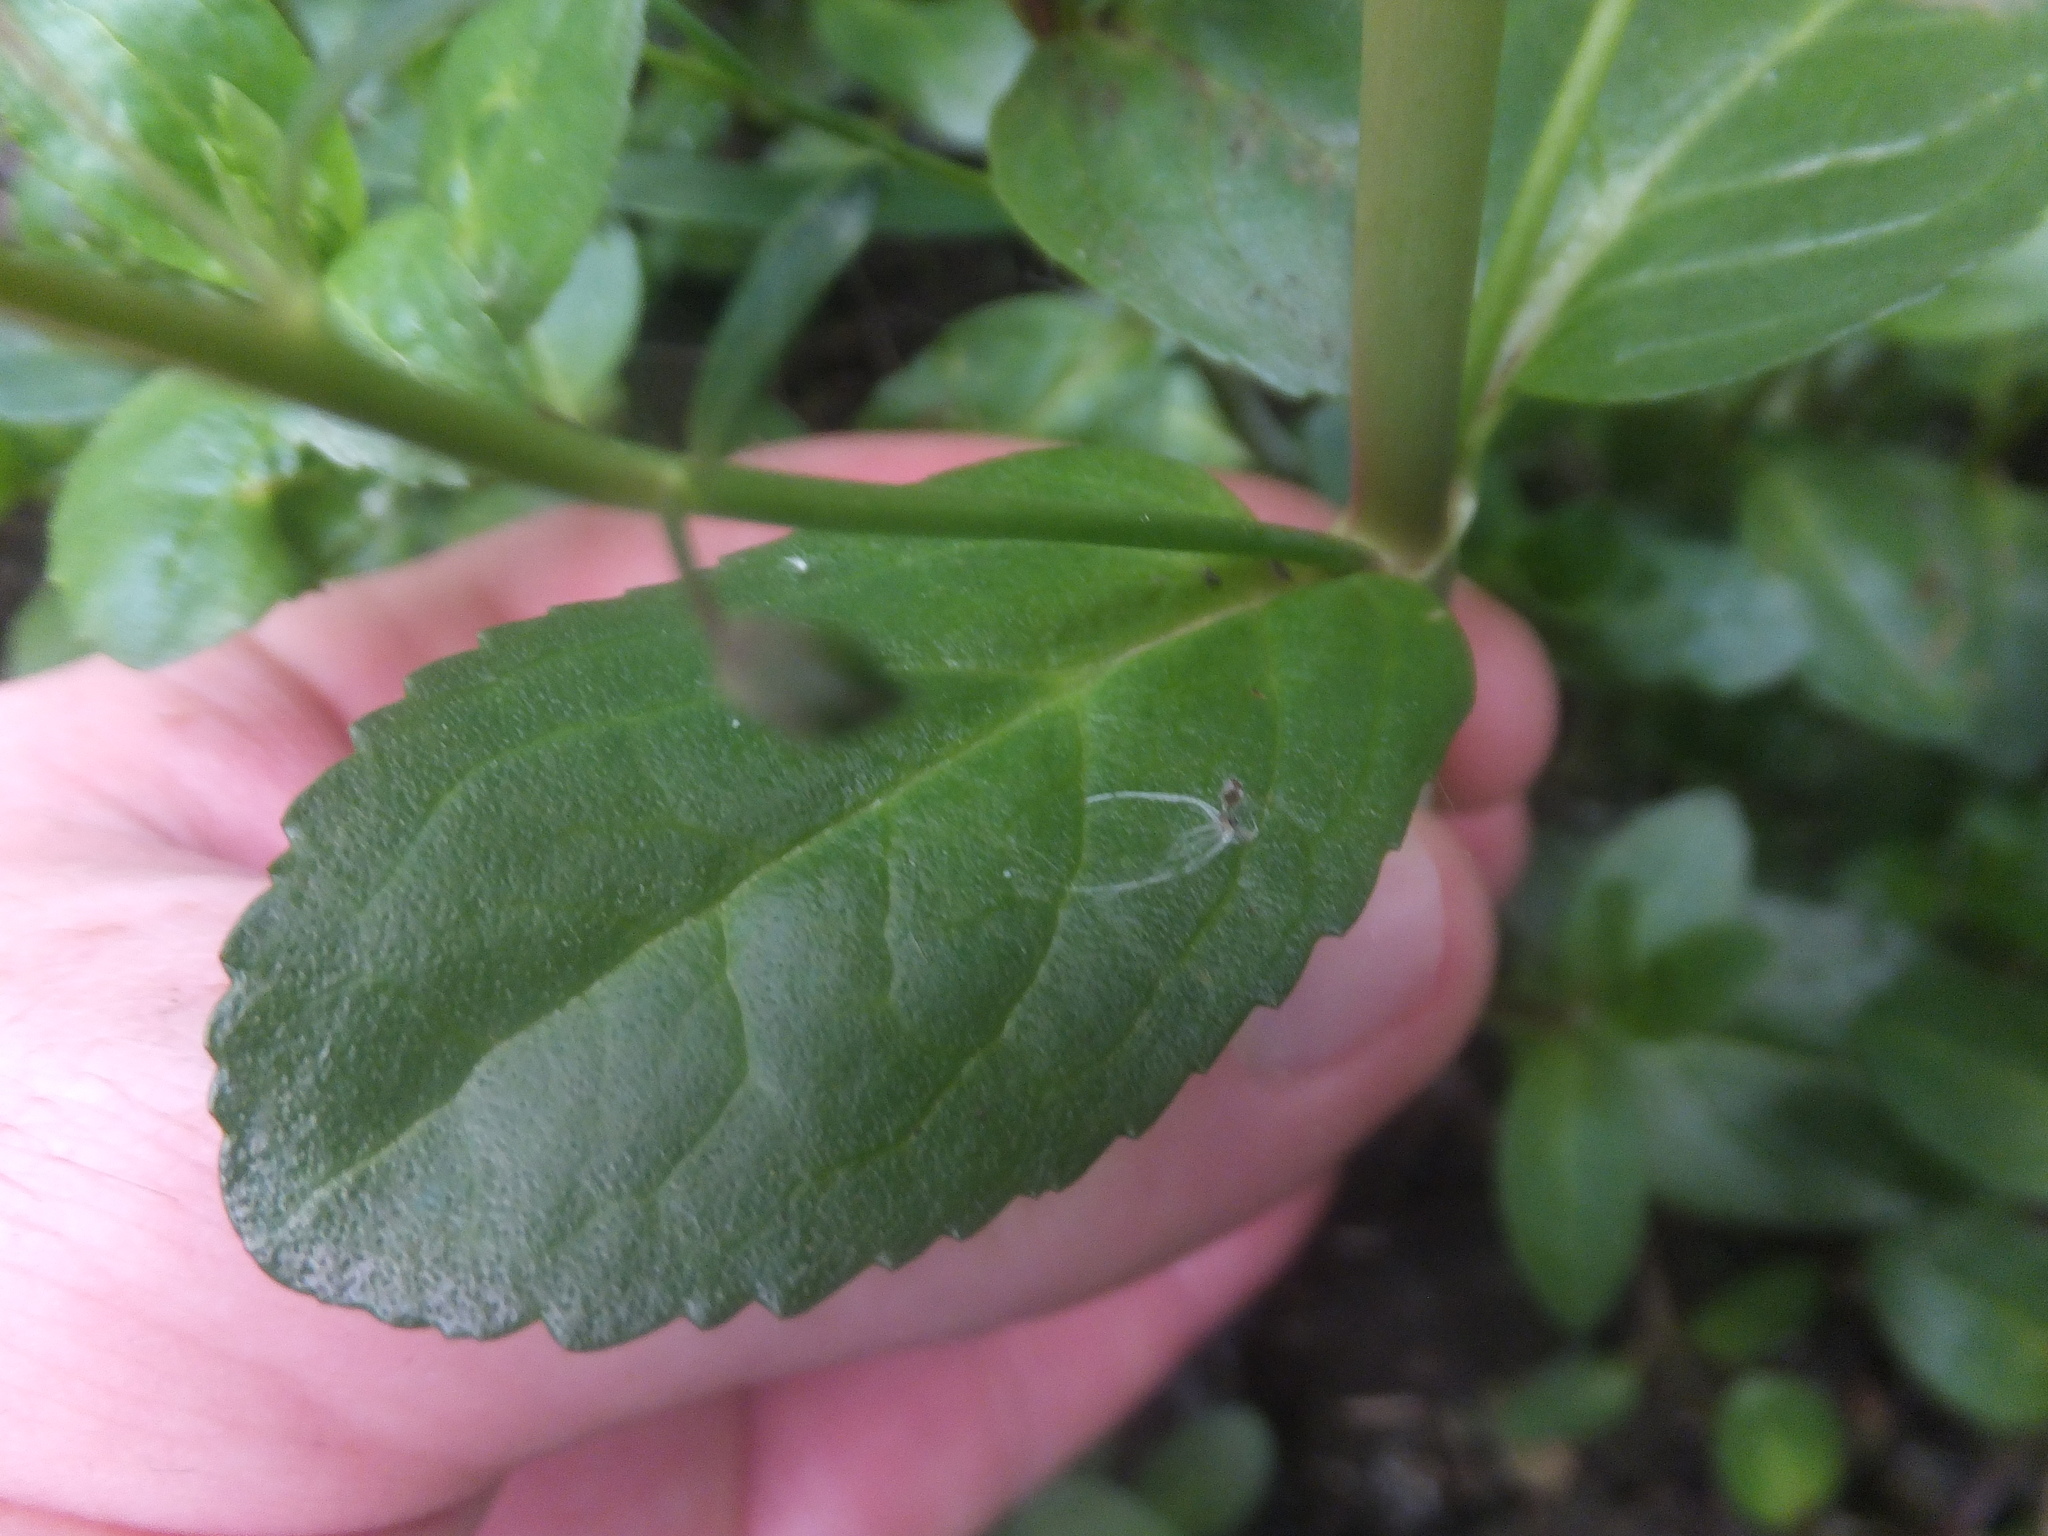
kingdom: Plantae
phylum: Tracheophyta
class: Magnoliopsida
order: Lamiales
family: Plantaginaceae
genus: Veronica
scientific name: Veronica beccabunga
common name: Brooklime
